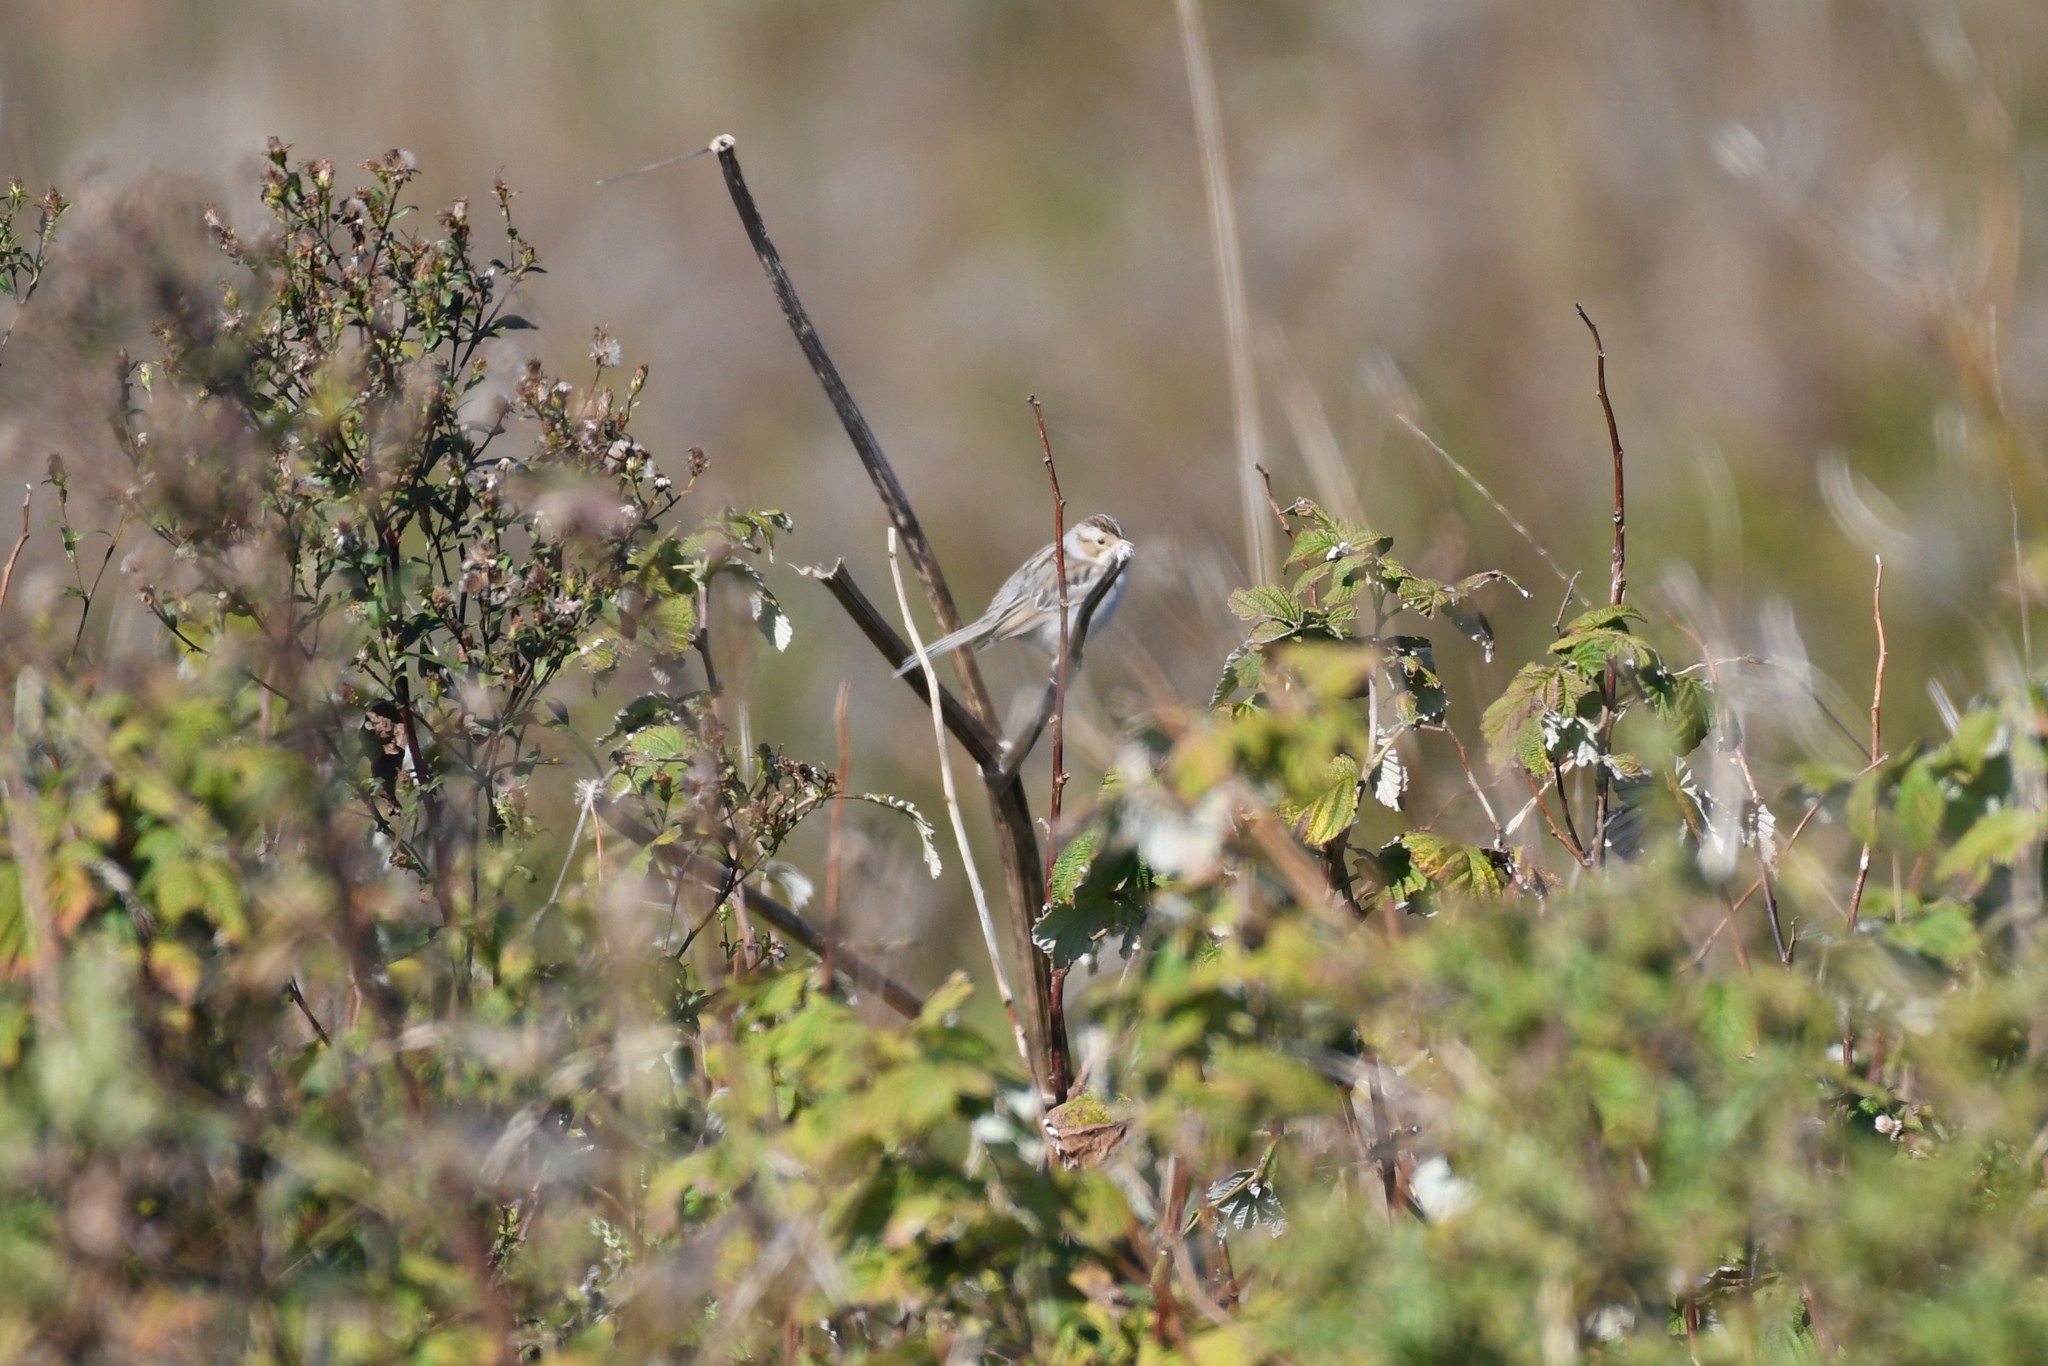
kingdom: Animalia
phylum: Chordata
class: Aves
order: Passeriformes
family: Passerellidae
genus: Spizella
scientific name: Spizella pallida
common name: Clay-colored sparrow
